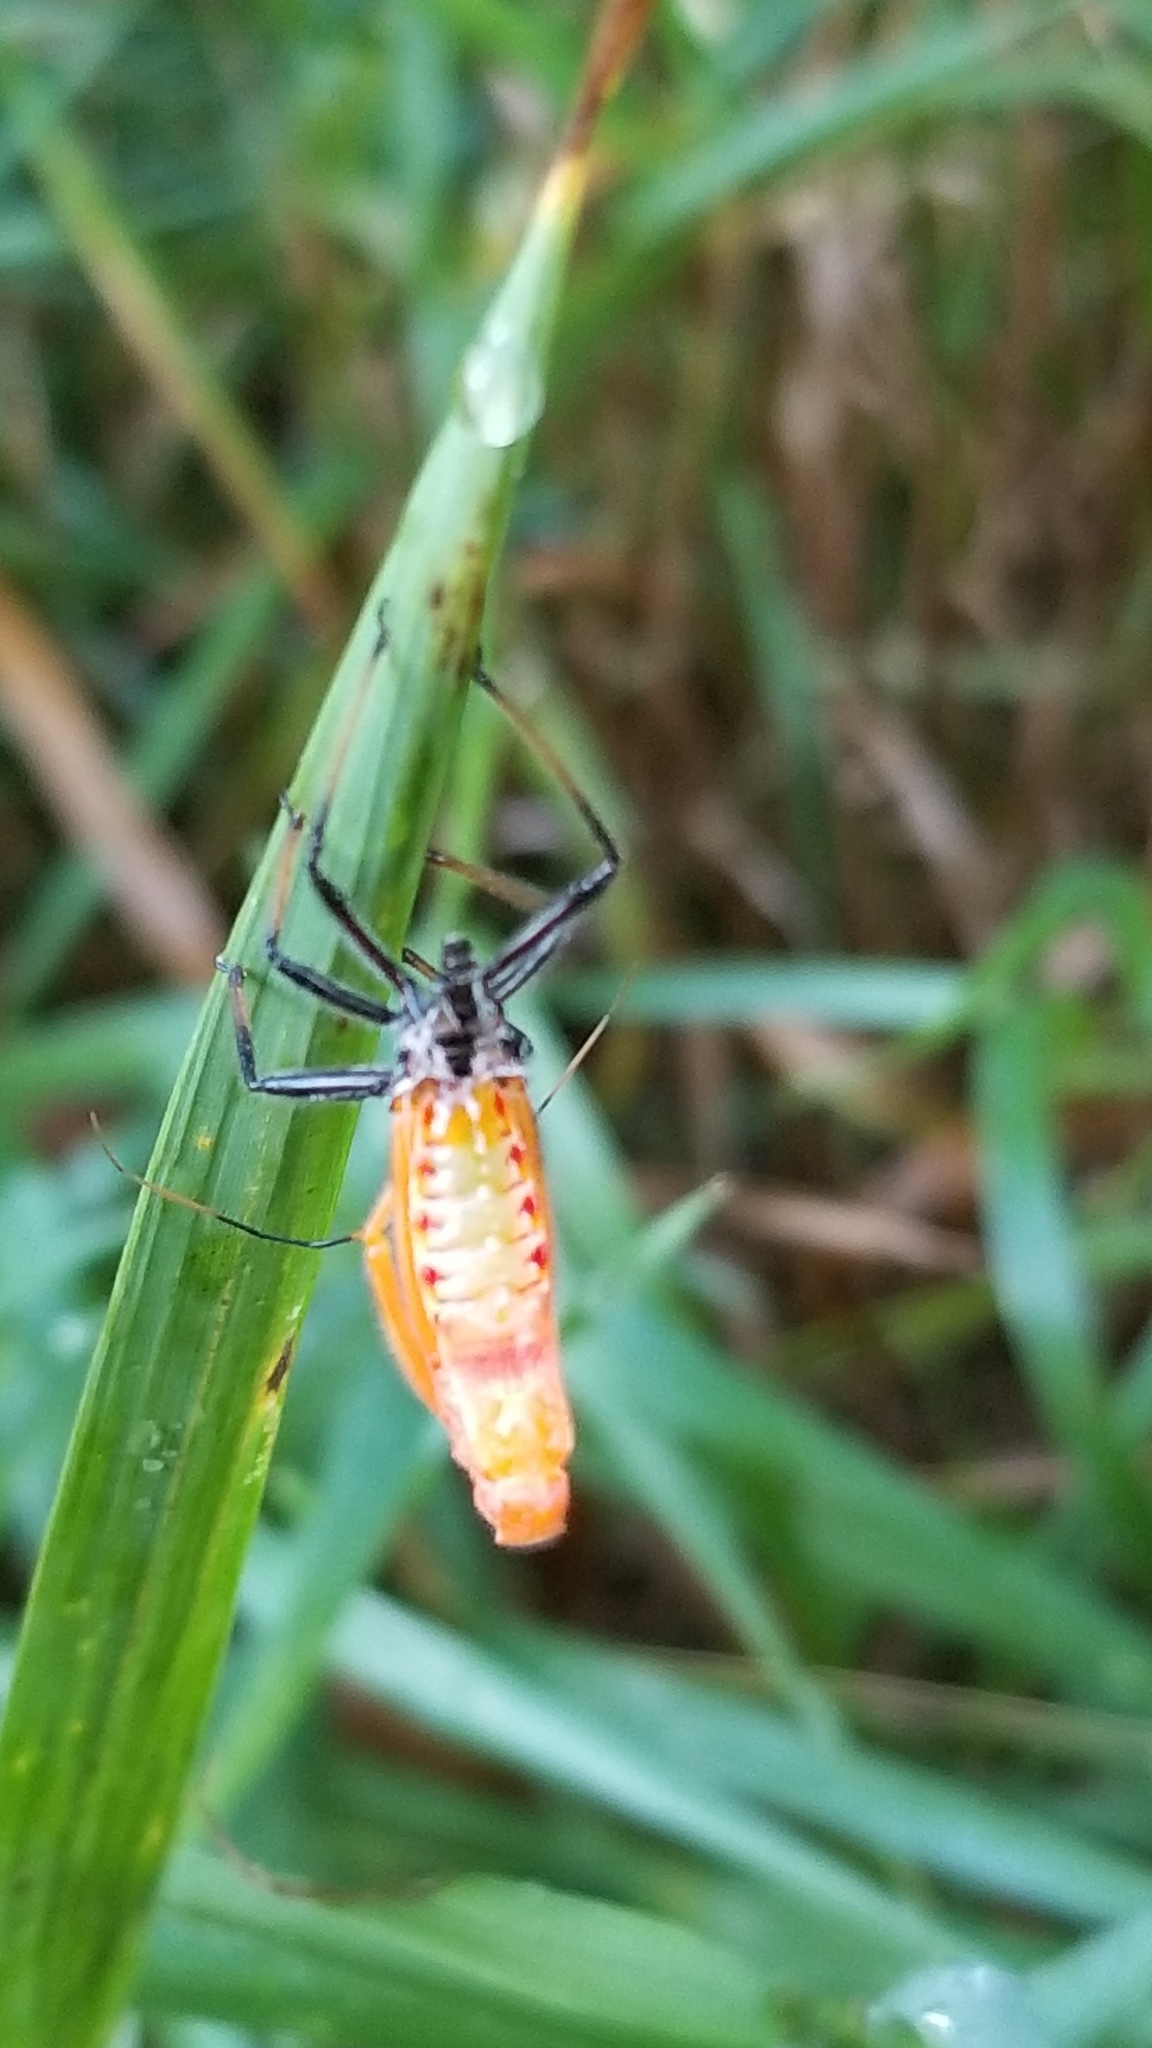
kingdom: Animalia
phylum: Arthropoda
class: Insecta
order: Hemiptera
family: Reduviidae
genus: Arilus
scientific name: Arilus cristatus
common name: North american wheel bug
